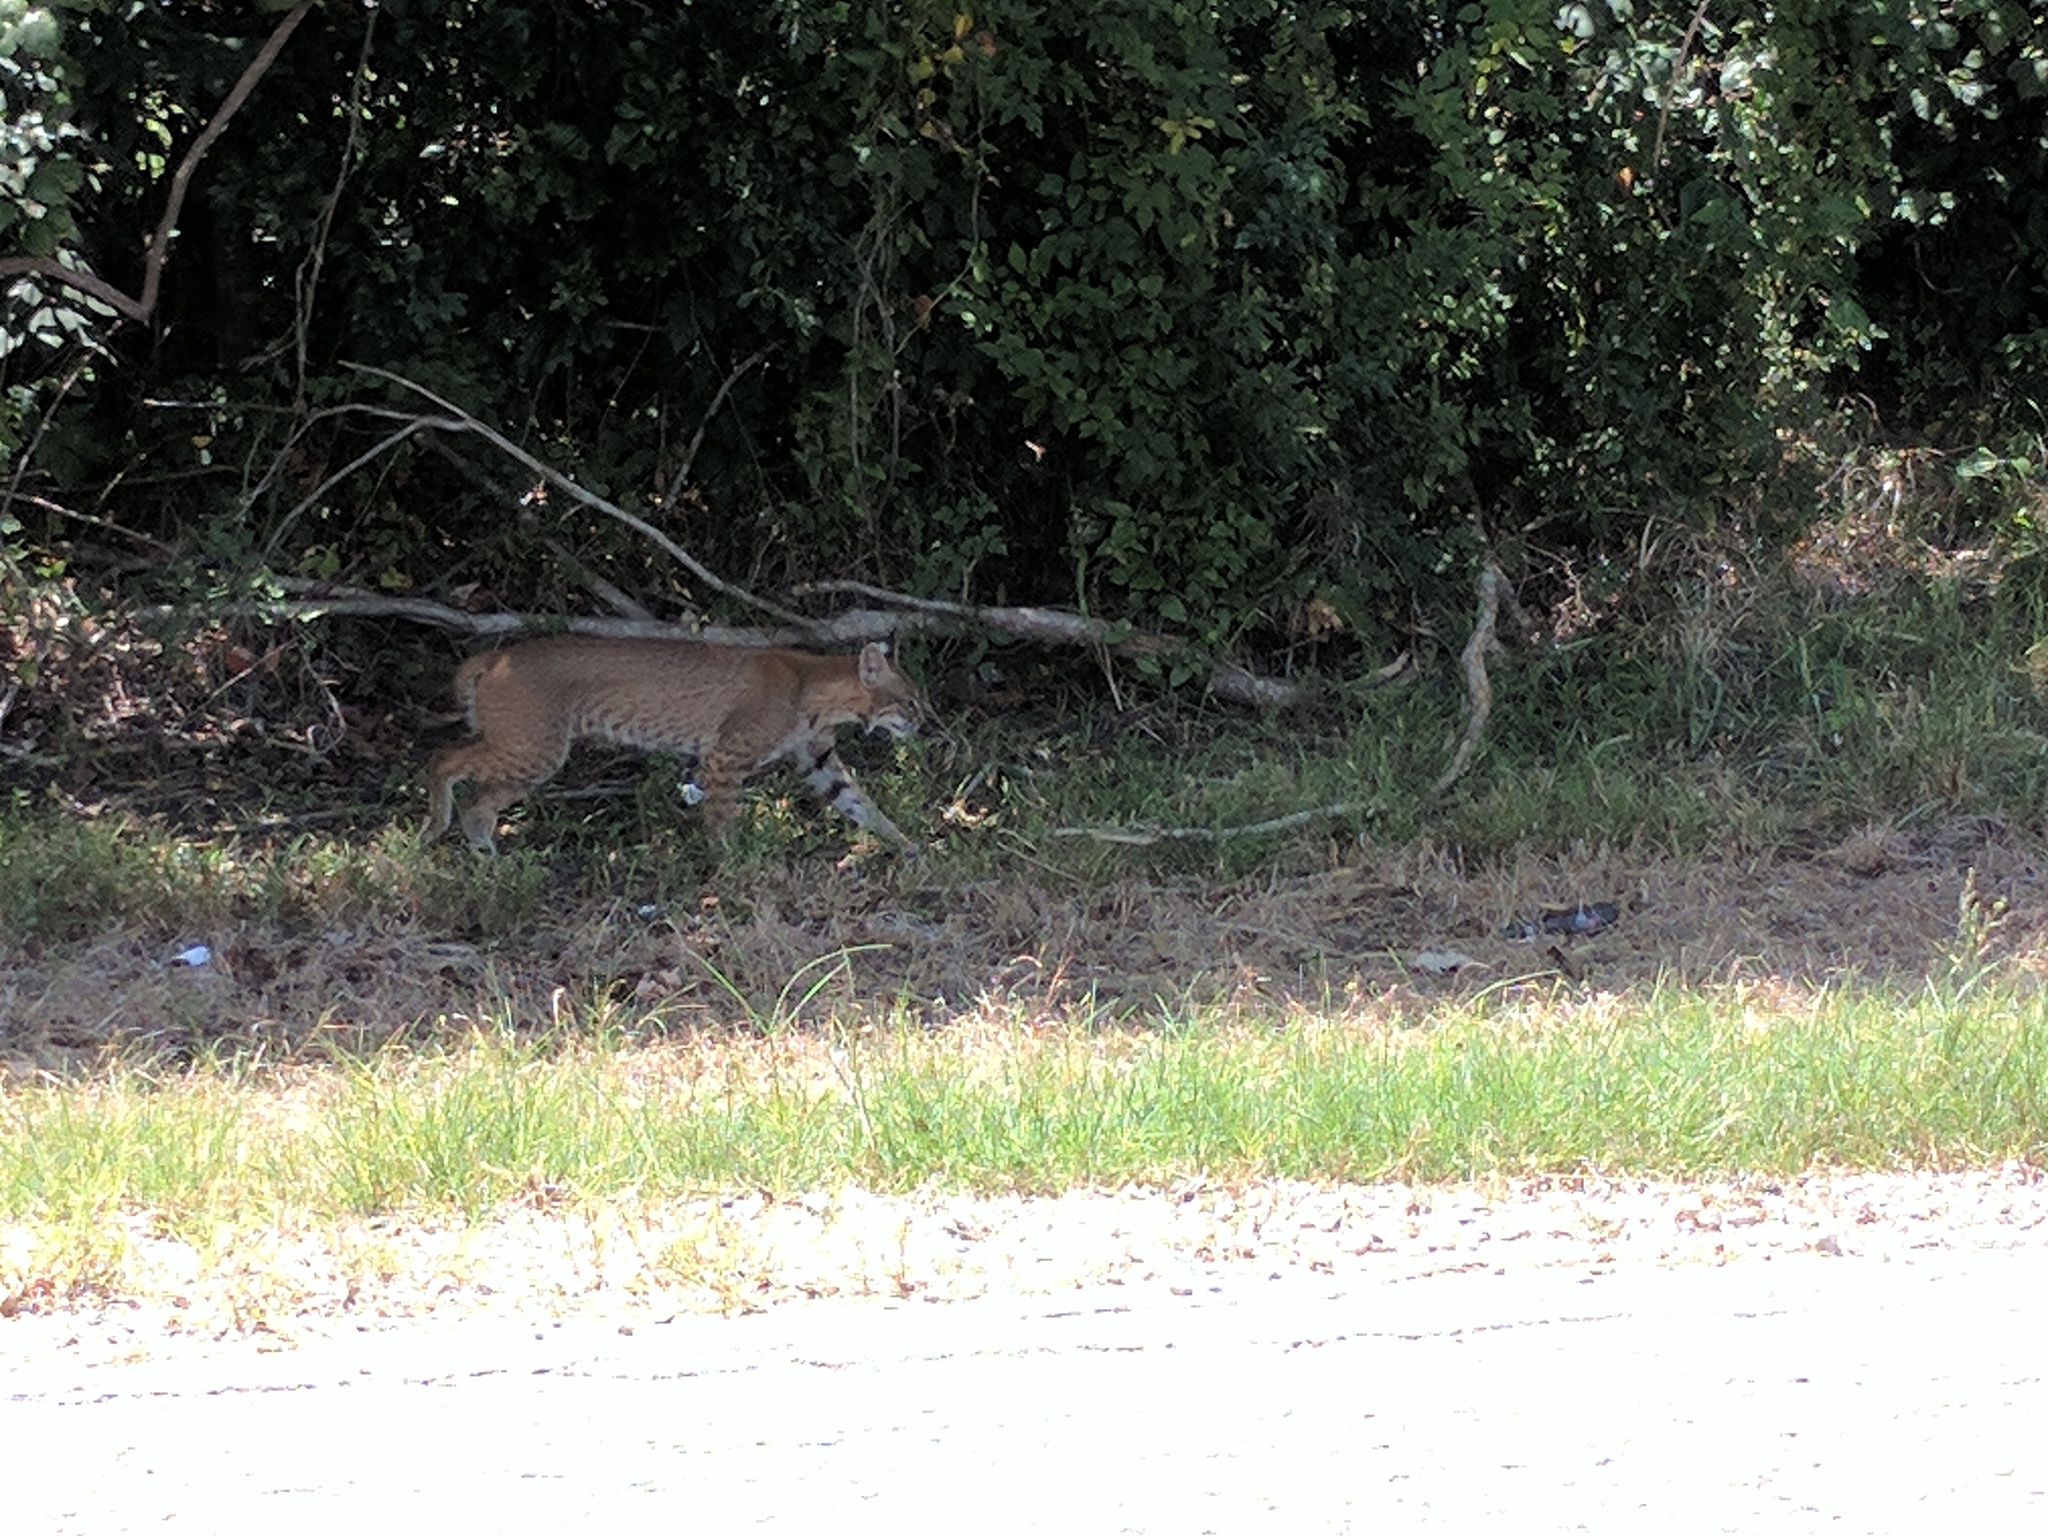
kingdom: Animalia
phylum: Chordata
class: Mammalia
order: Carnivora
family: Felidae
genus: Lynx
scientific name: Lynx rufus
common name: Bobcat
